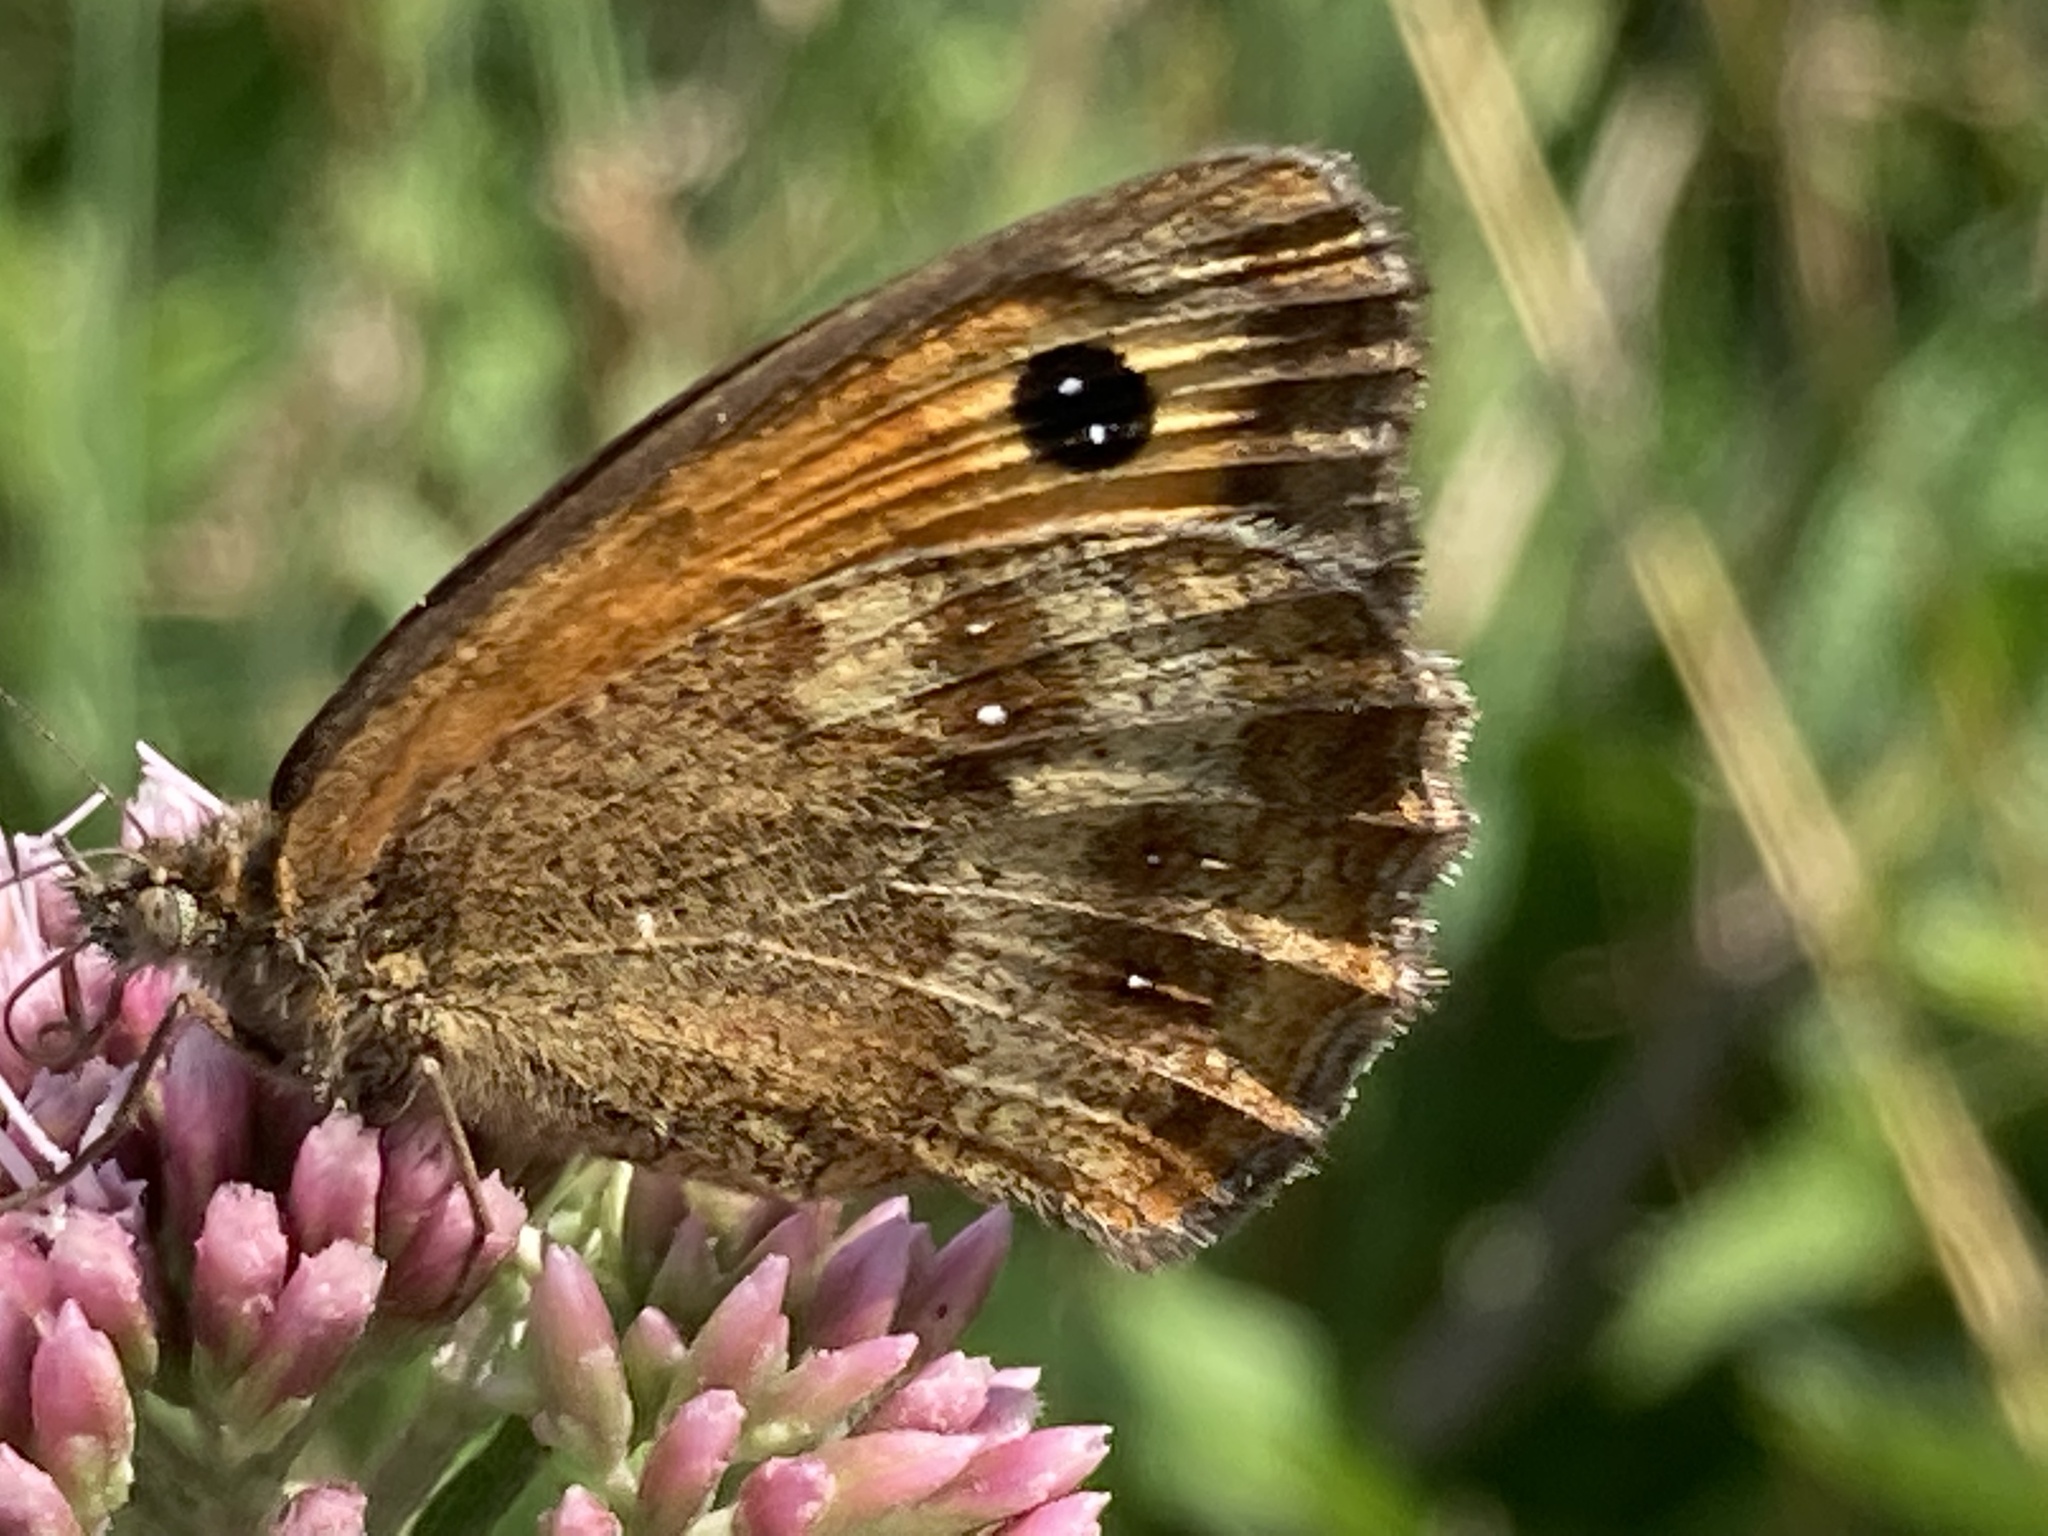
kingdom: Animalia
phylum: Arthropoda
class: Insecta
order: Lepidoptera
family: Nymphalidae
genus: Pyronia
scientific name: Pyronia tithonus
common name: Gatekeeper
